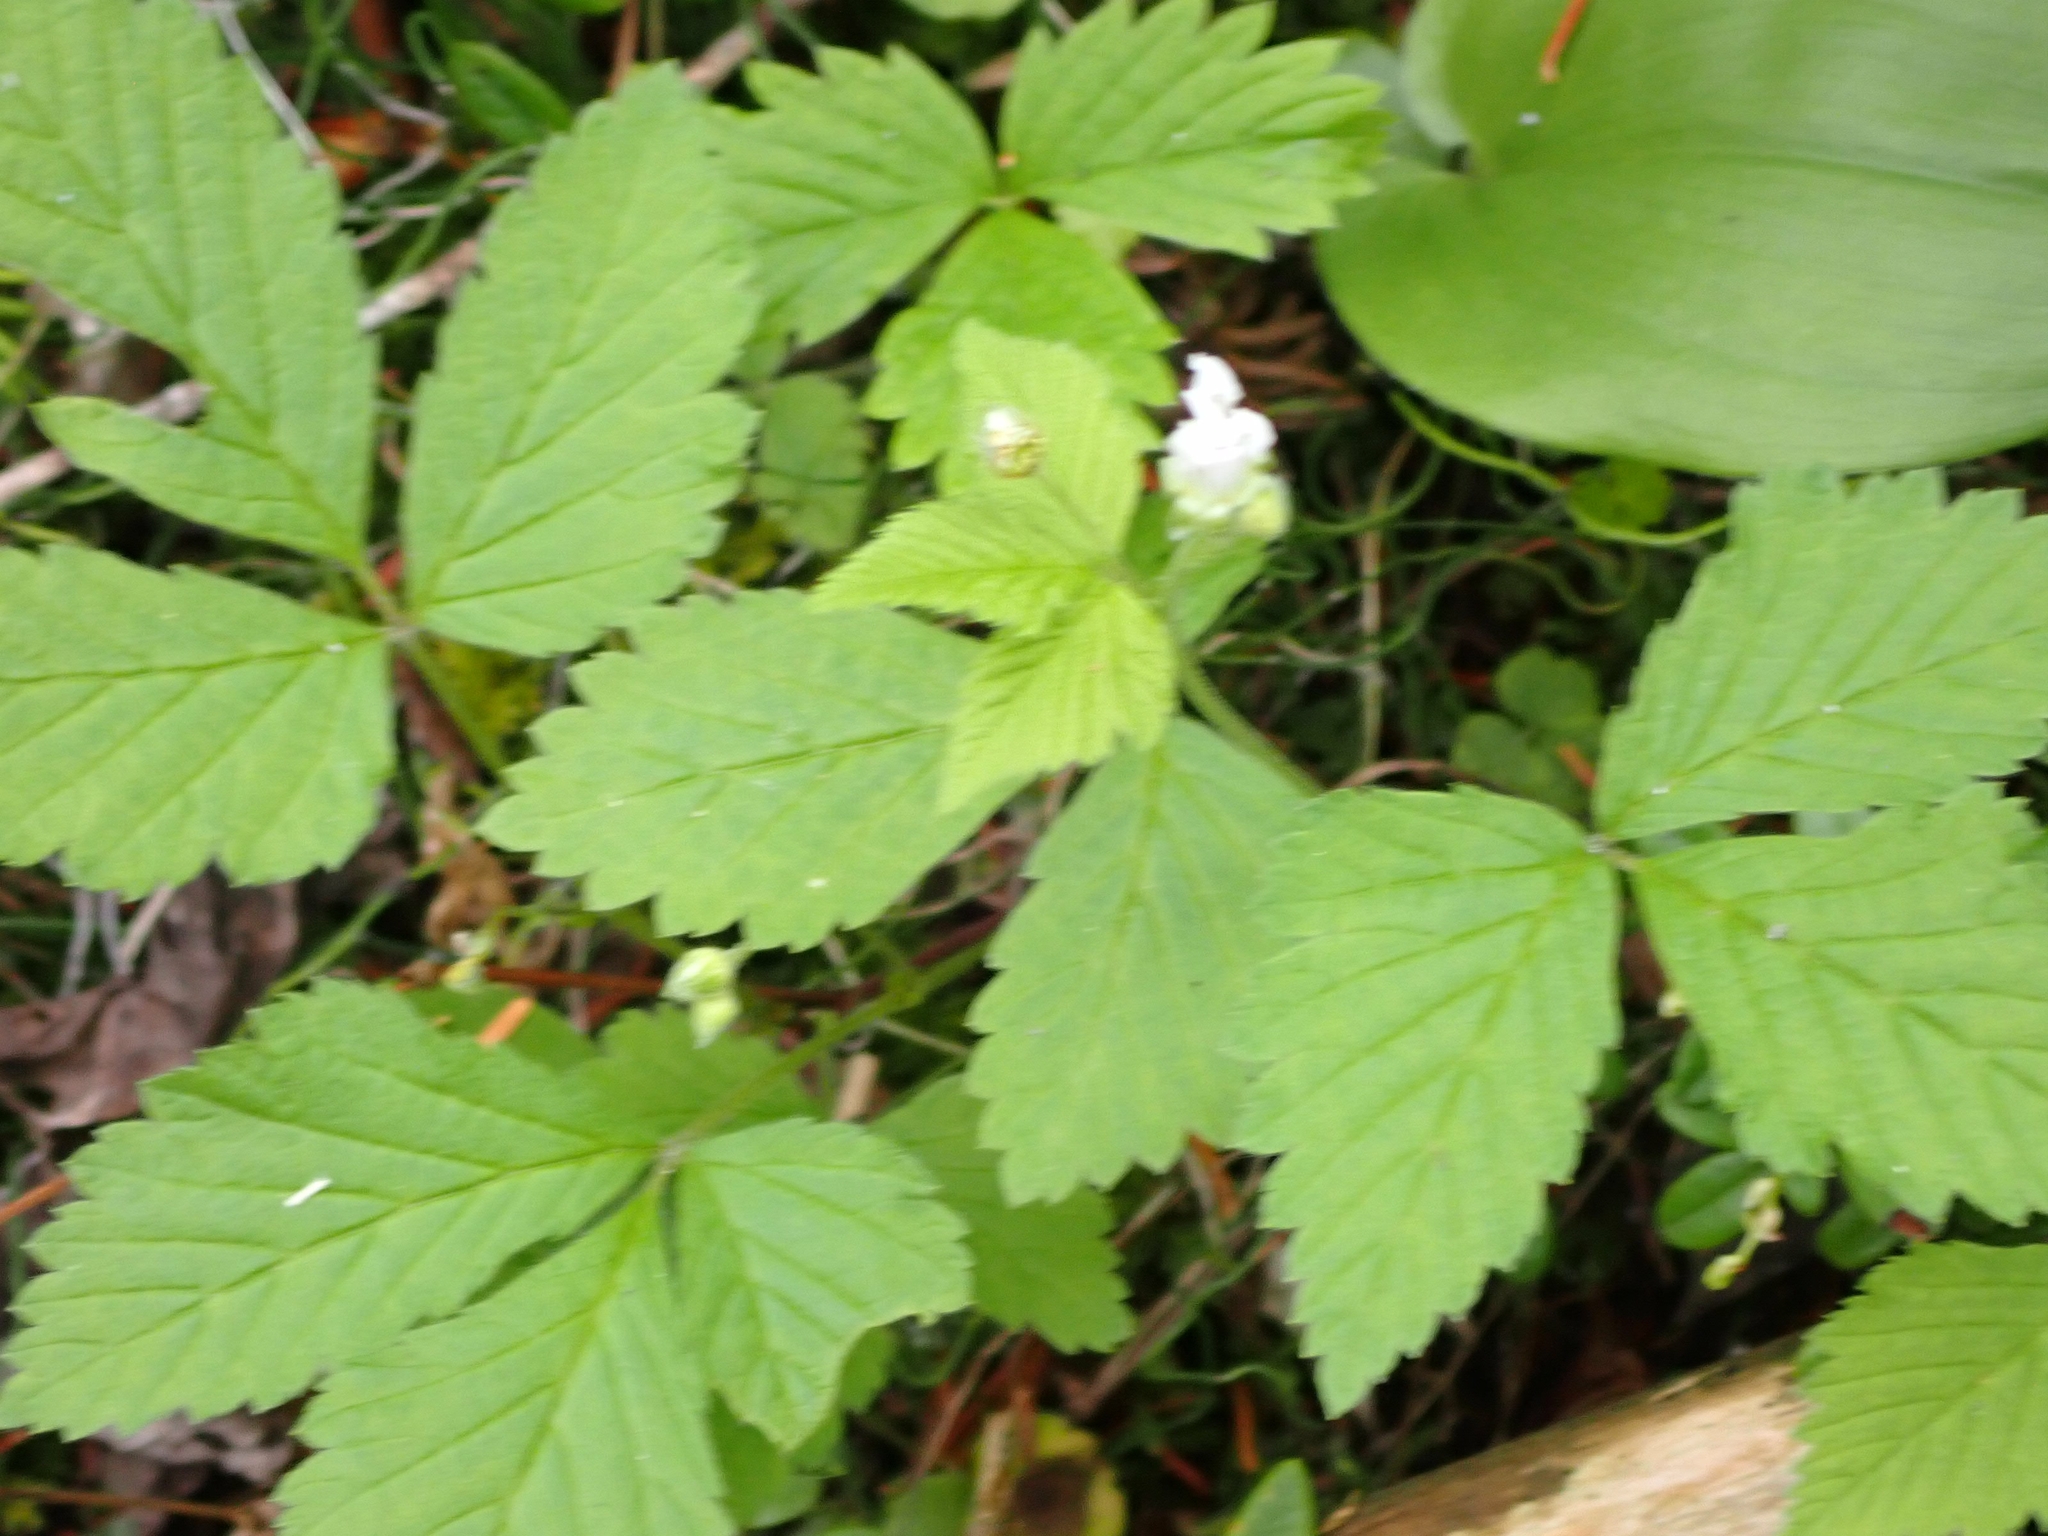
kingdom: Plantae
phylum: Tracheophyta
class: Magnoliopsida
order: Rosales
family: Rosaceae
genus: Rubus
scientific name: Rubus pubescens
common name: Dwarf raspberry
